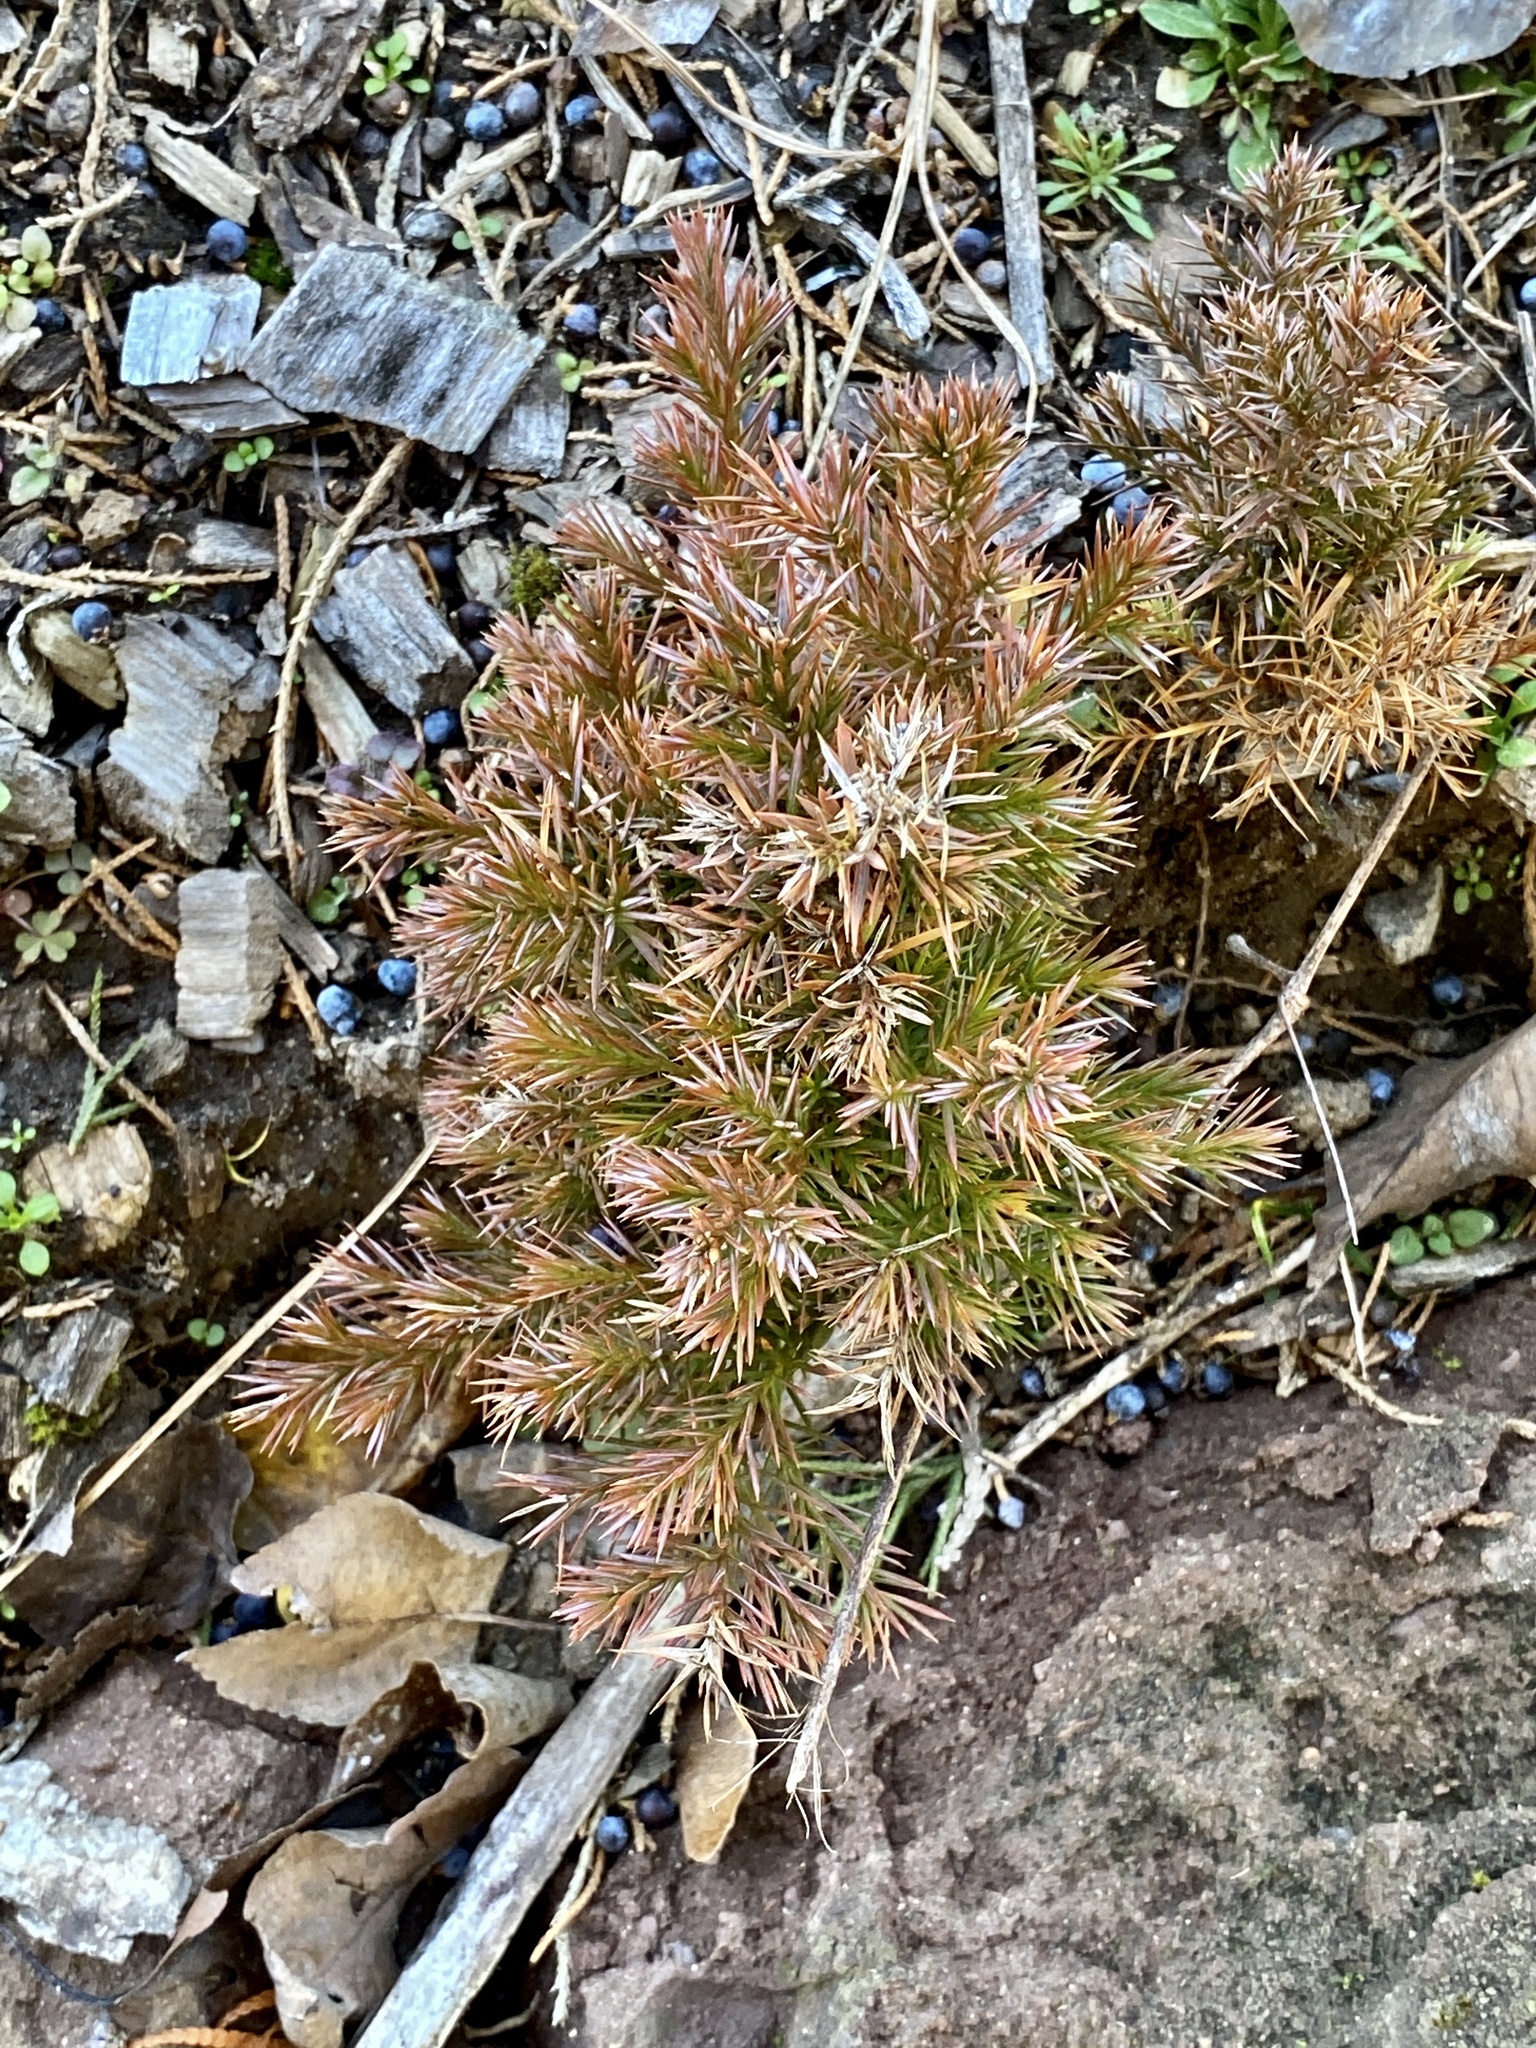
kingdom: Plantae
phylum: Tracheophyta
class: Pinopsida
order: Pinales
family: Cupressaceae
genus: Juniperus
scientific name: Juniperus virginiana
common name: Red juniper
